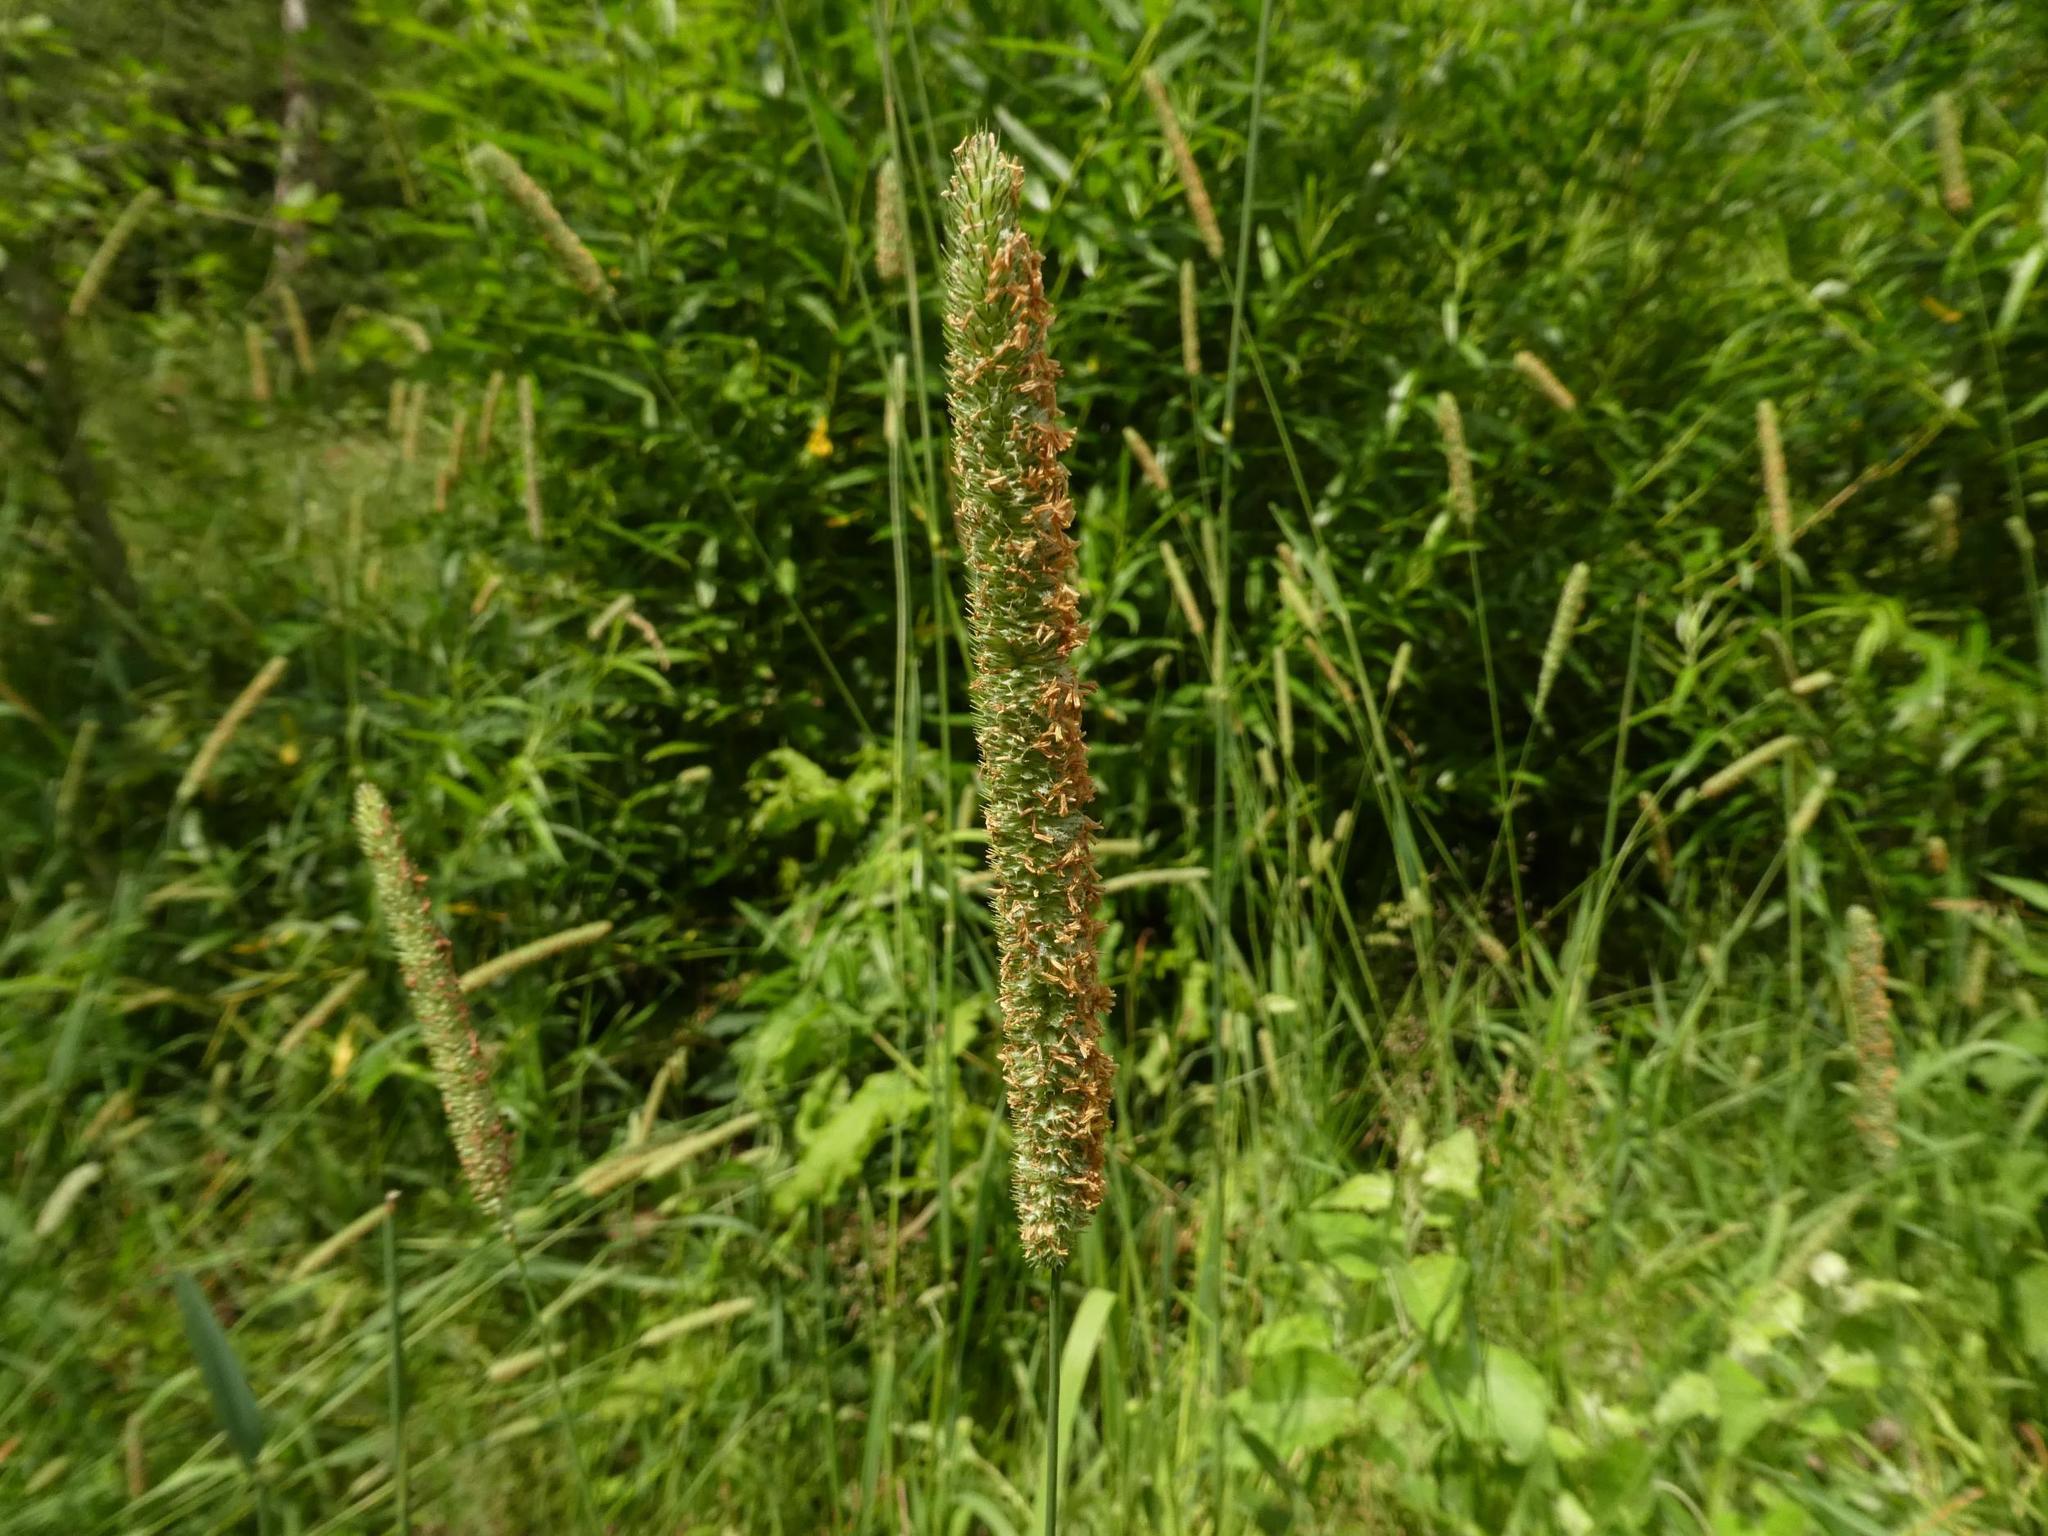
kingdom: Plantae
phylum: Tracheophyta
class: Liliopsida
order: Poales
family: Poaceae
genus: Phleum
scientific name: Phleum pratense
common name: Timothy grass
